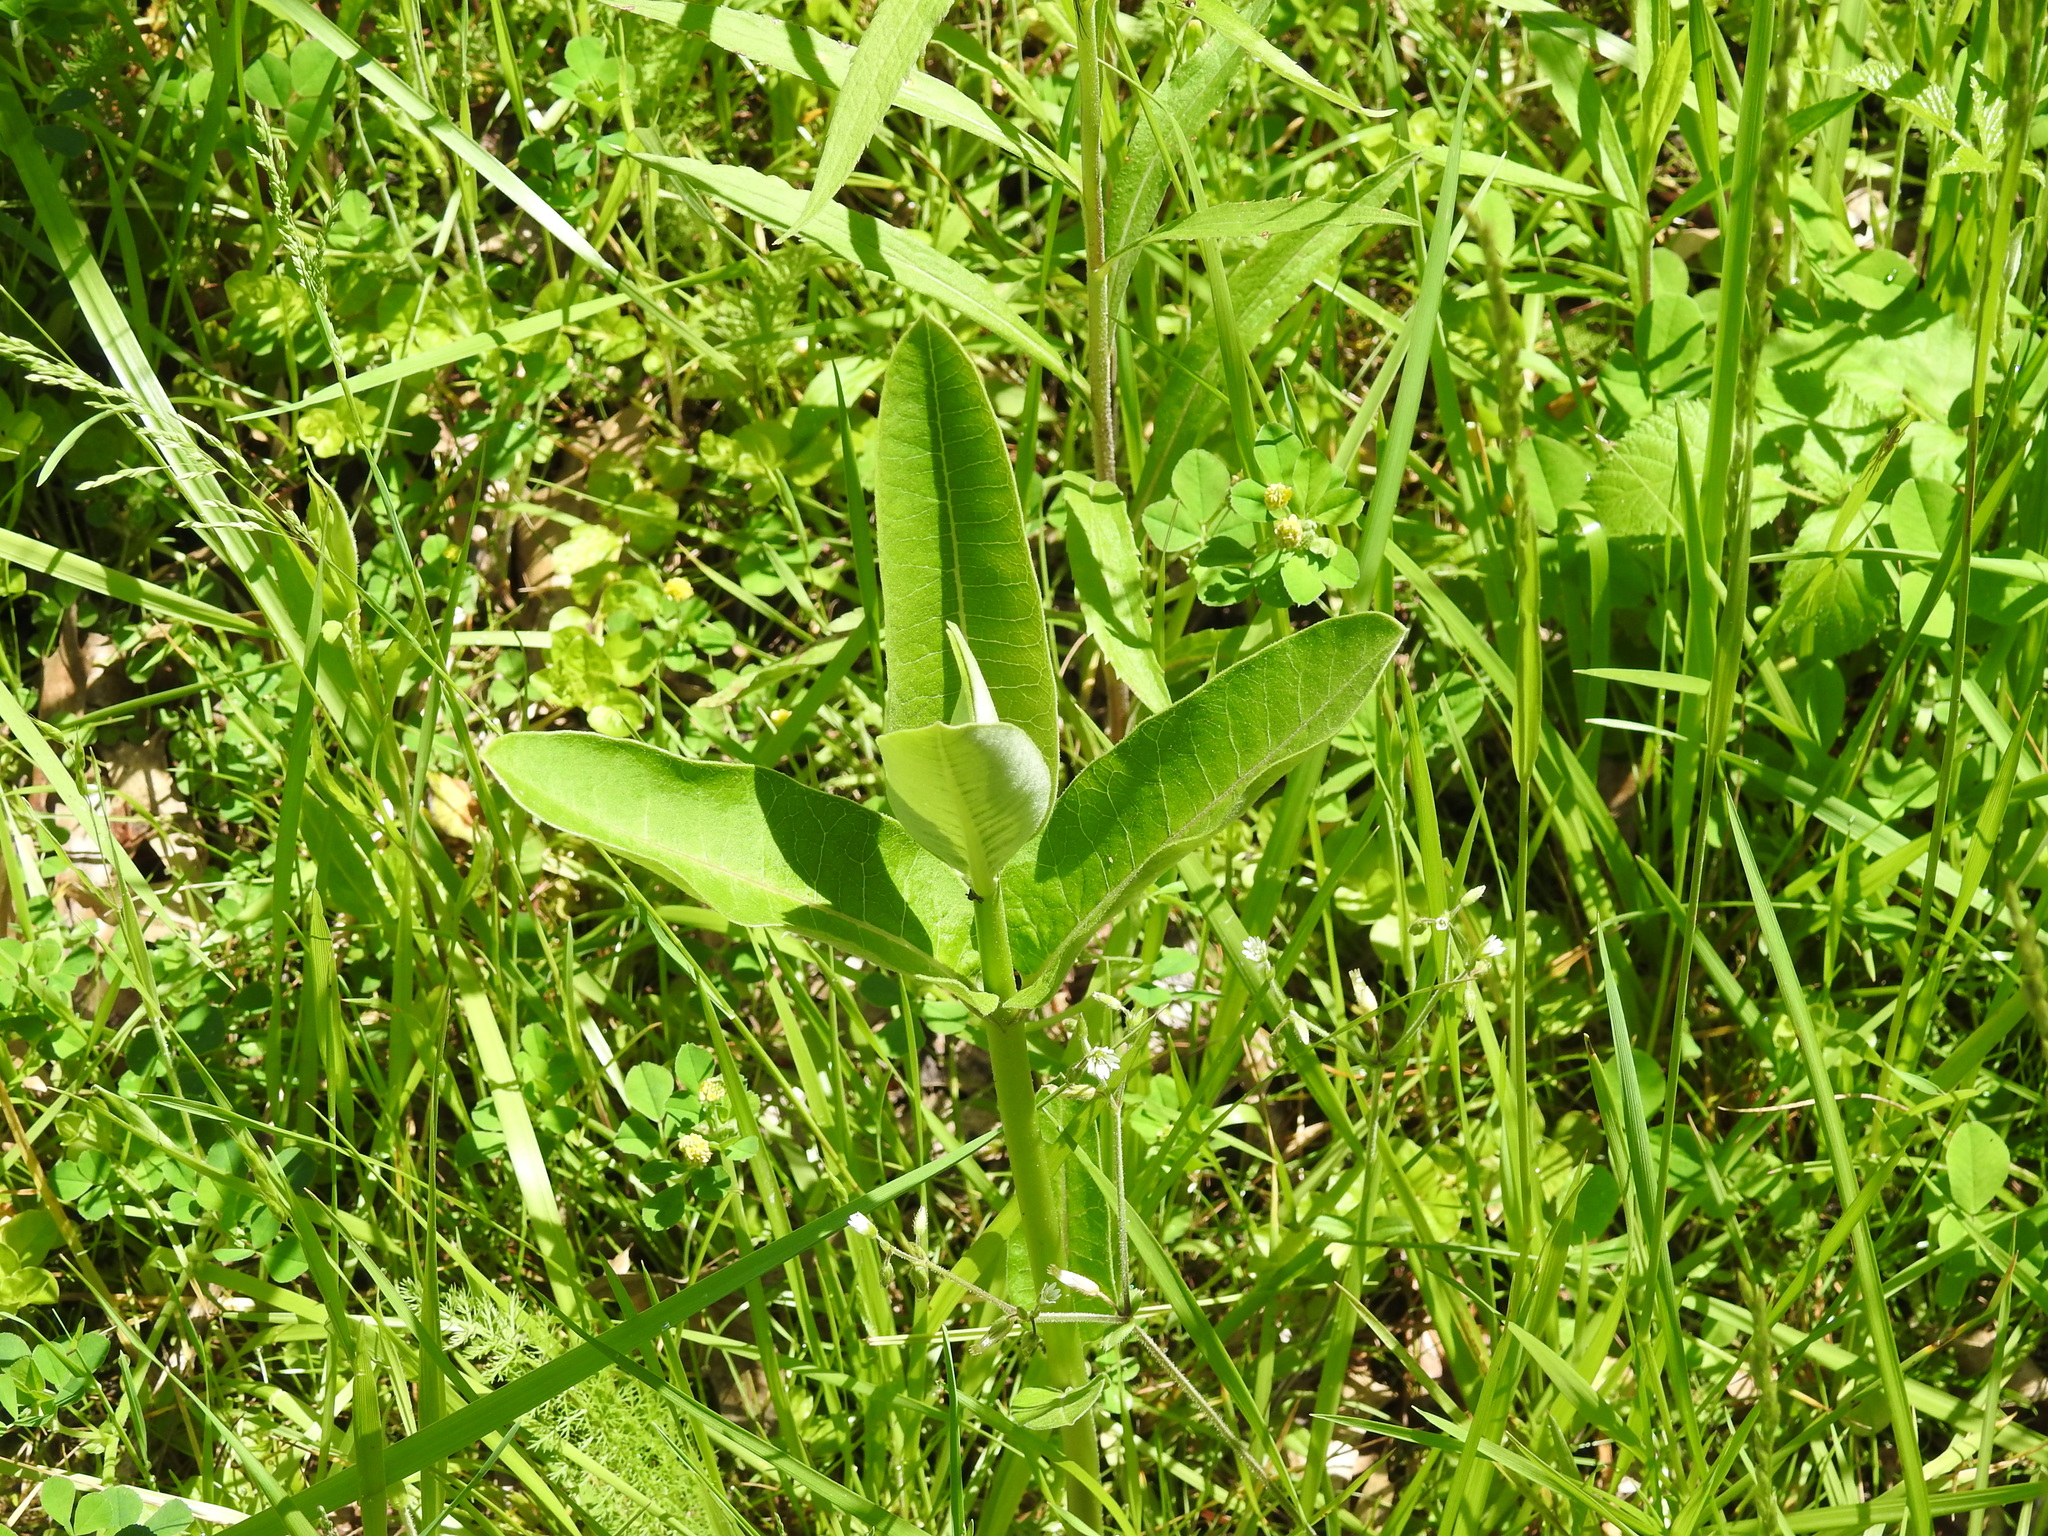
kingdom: Plantae
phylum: Tracheophyta
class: Magnoliopsida
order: Gentianales
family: Apocynaceae
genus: Asclepias
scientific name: Asclepias syriaca
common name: Common milkweed
